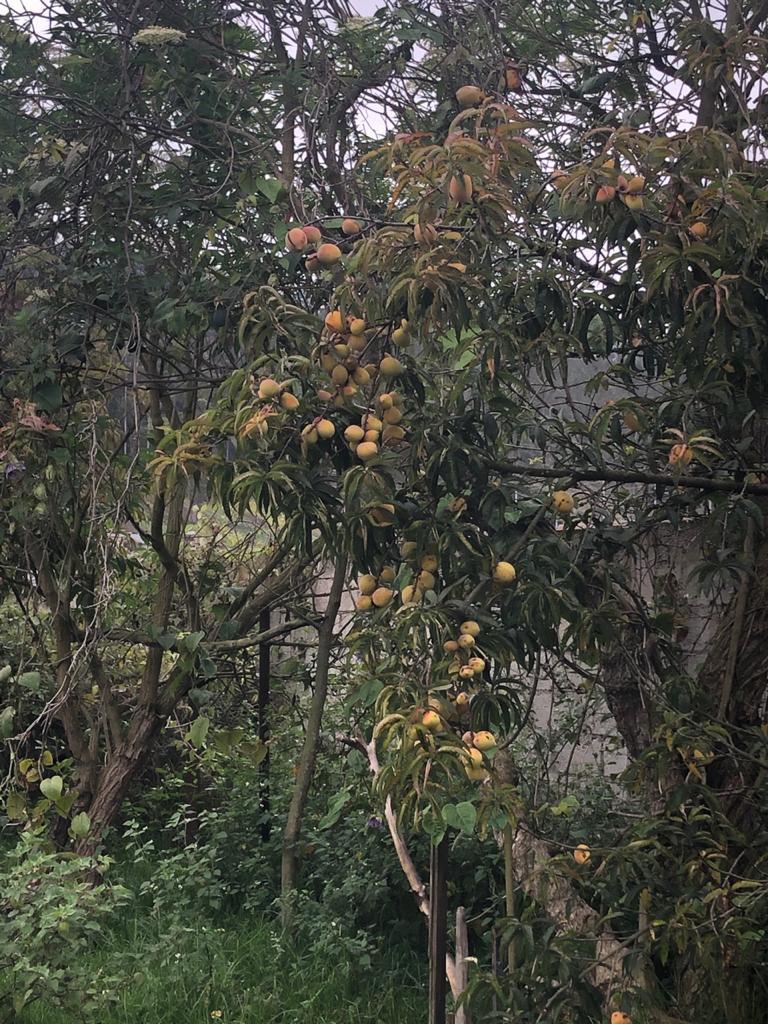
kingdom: Plantae
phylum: Tracheophyta
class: Magnoliopsida
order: Rosales
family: Rosaceae
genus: Prunus
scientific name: Prunus persica
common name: Peach
